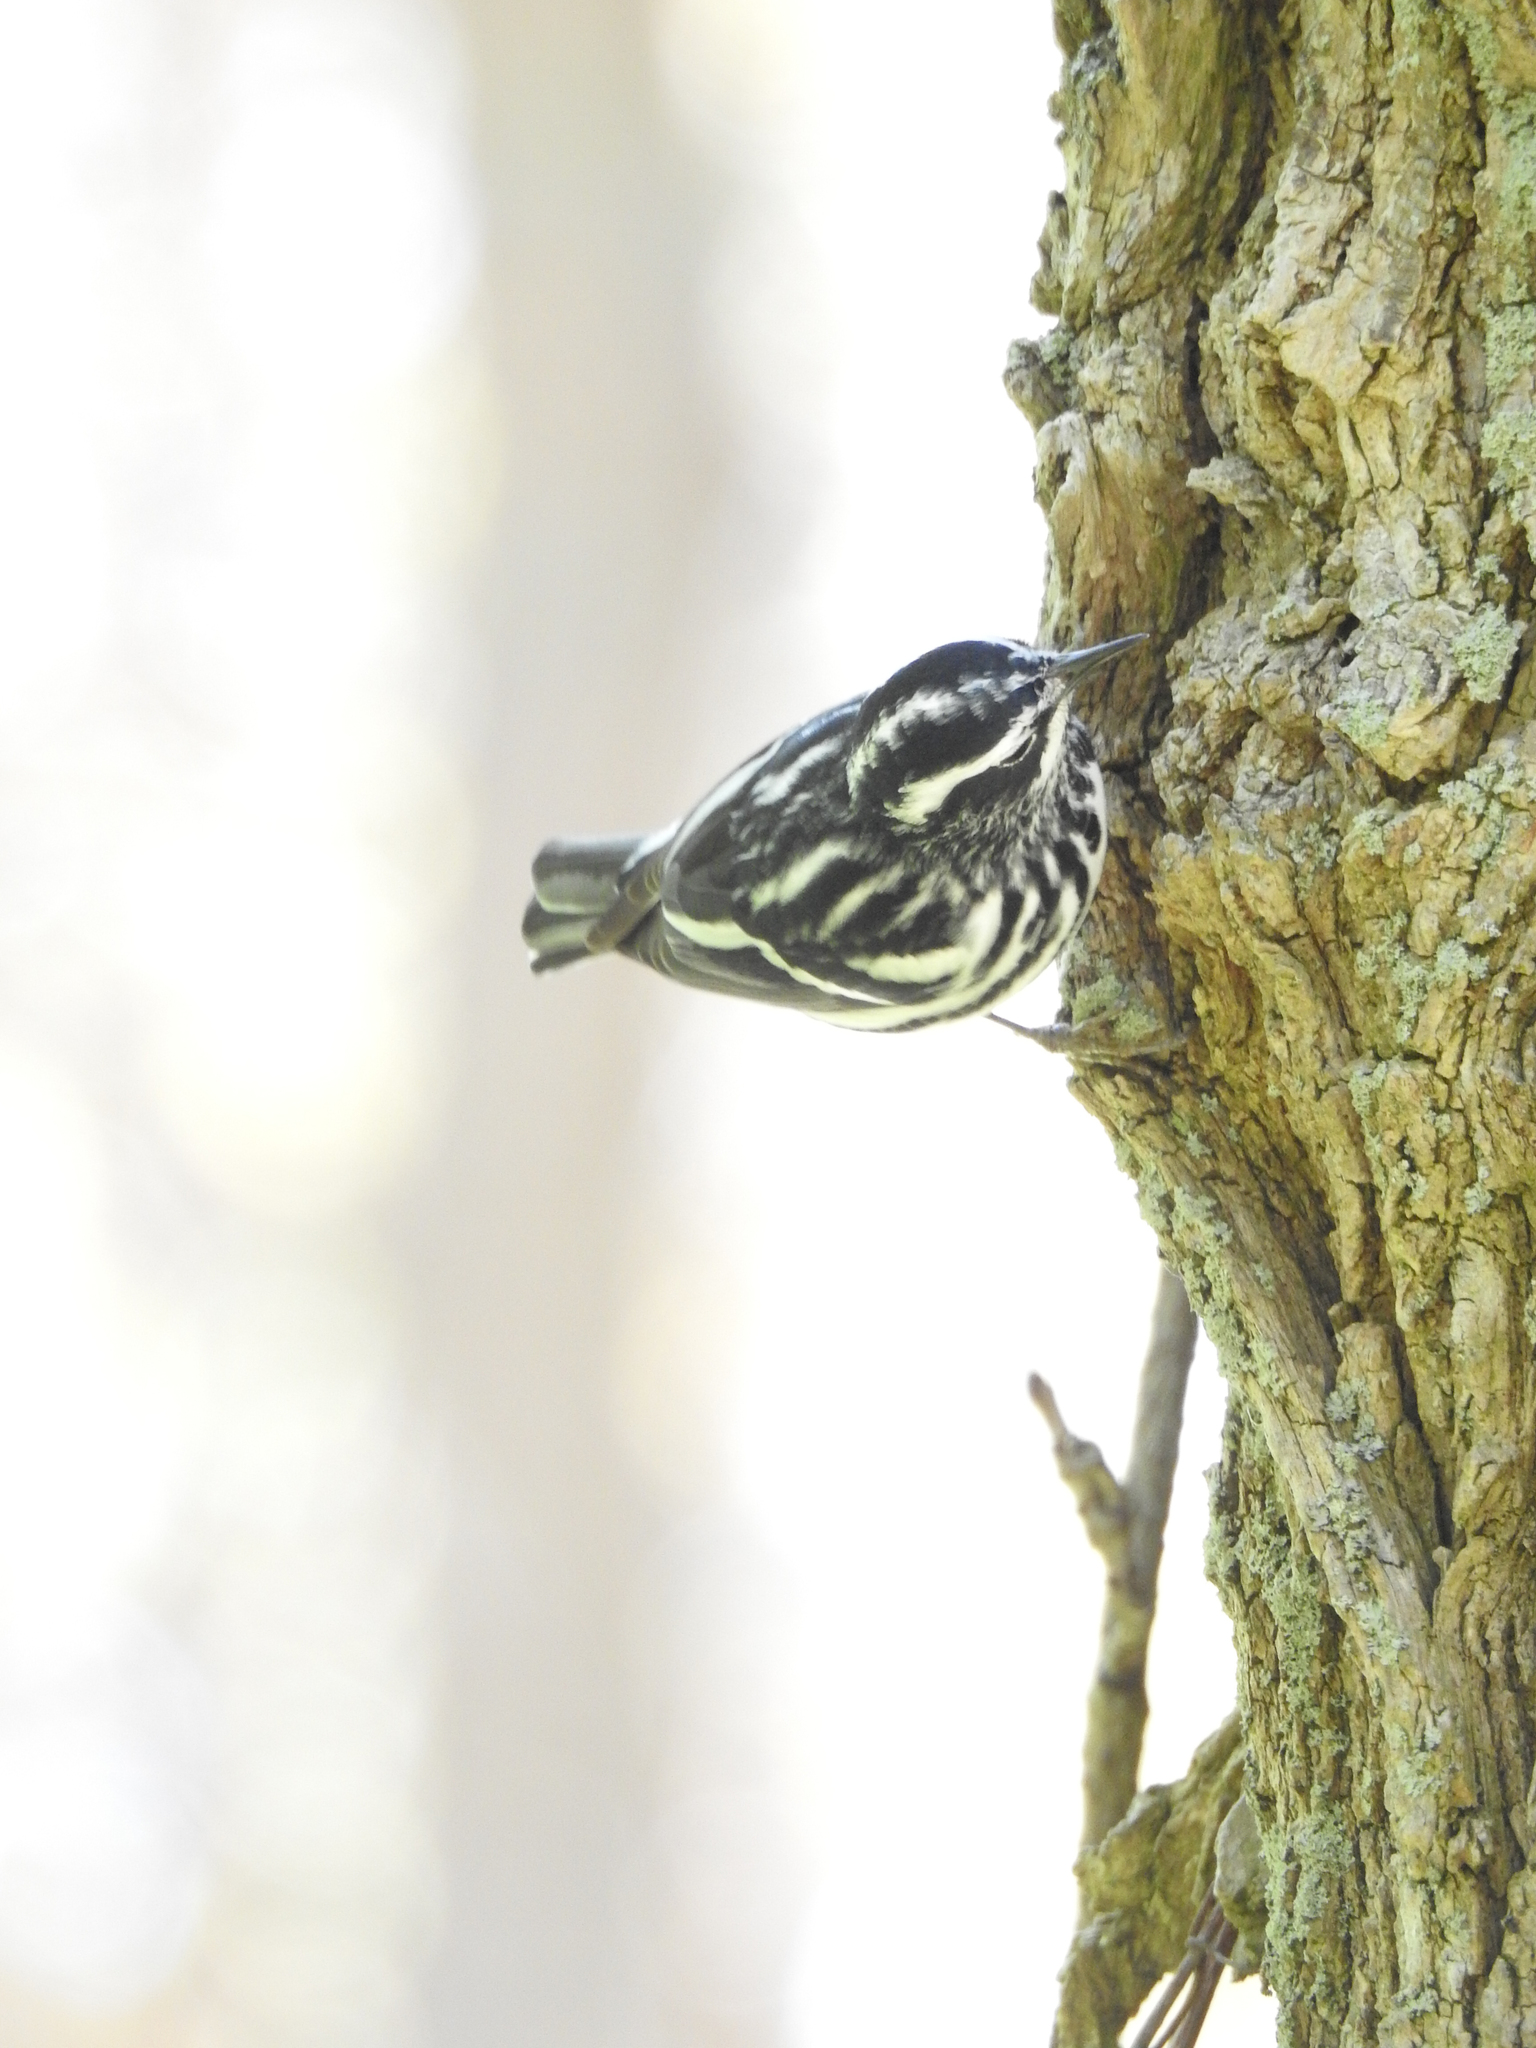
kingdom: Animalia
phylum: Chordata
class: Aves
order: Passeriformes
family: Parulidae
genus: Mniotilta
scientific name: Mniotilta varia
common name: Black-and-white warbler
